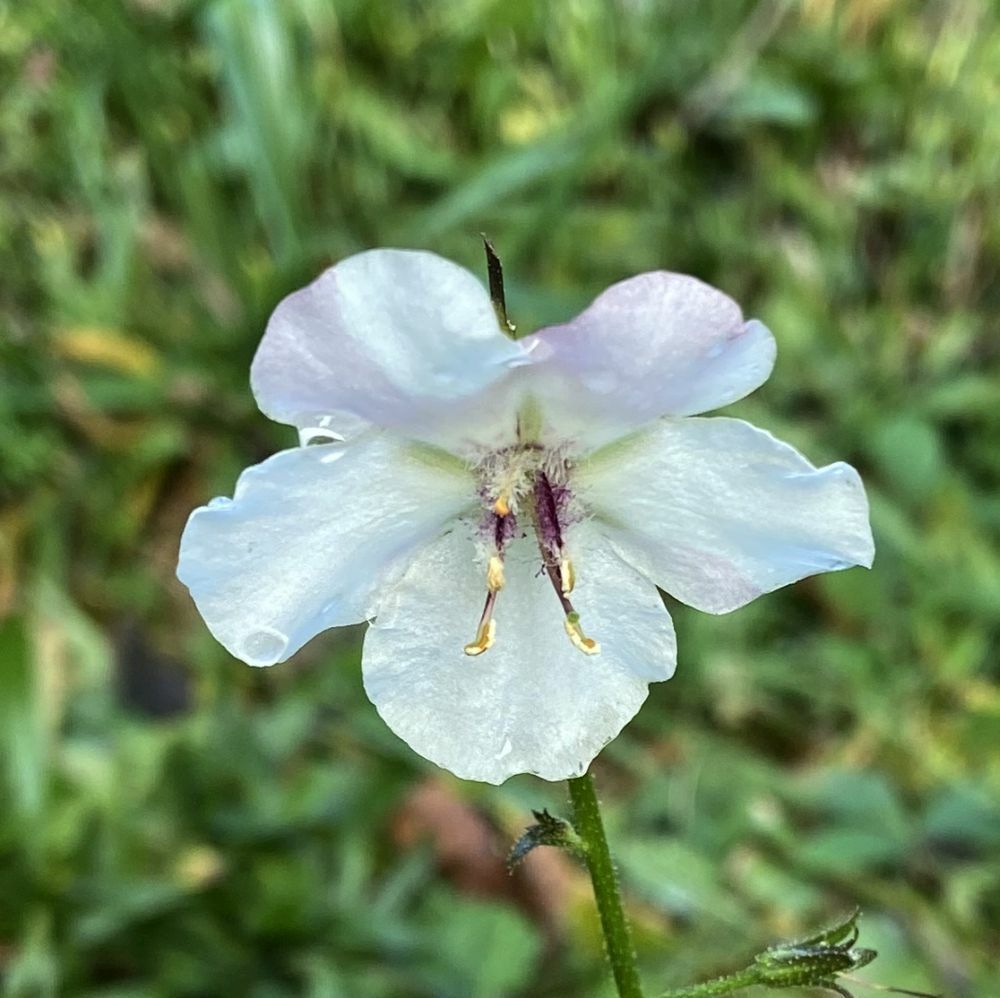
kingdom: Plantae
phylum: Tracheophyta
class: Magnoliopsida
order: Lamiales
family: Scrophulariaceae
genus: Verbascum
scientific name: Verbascum blattaria
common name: Moth mullein
